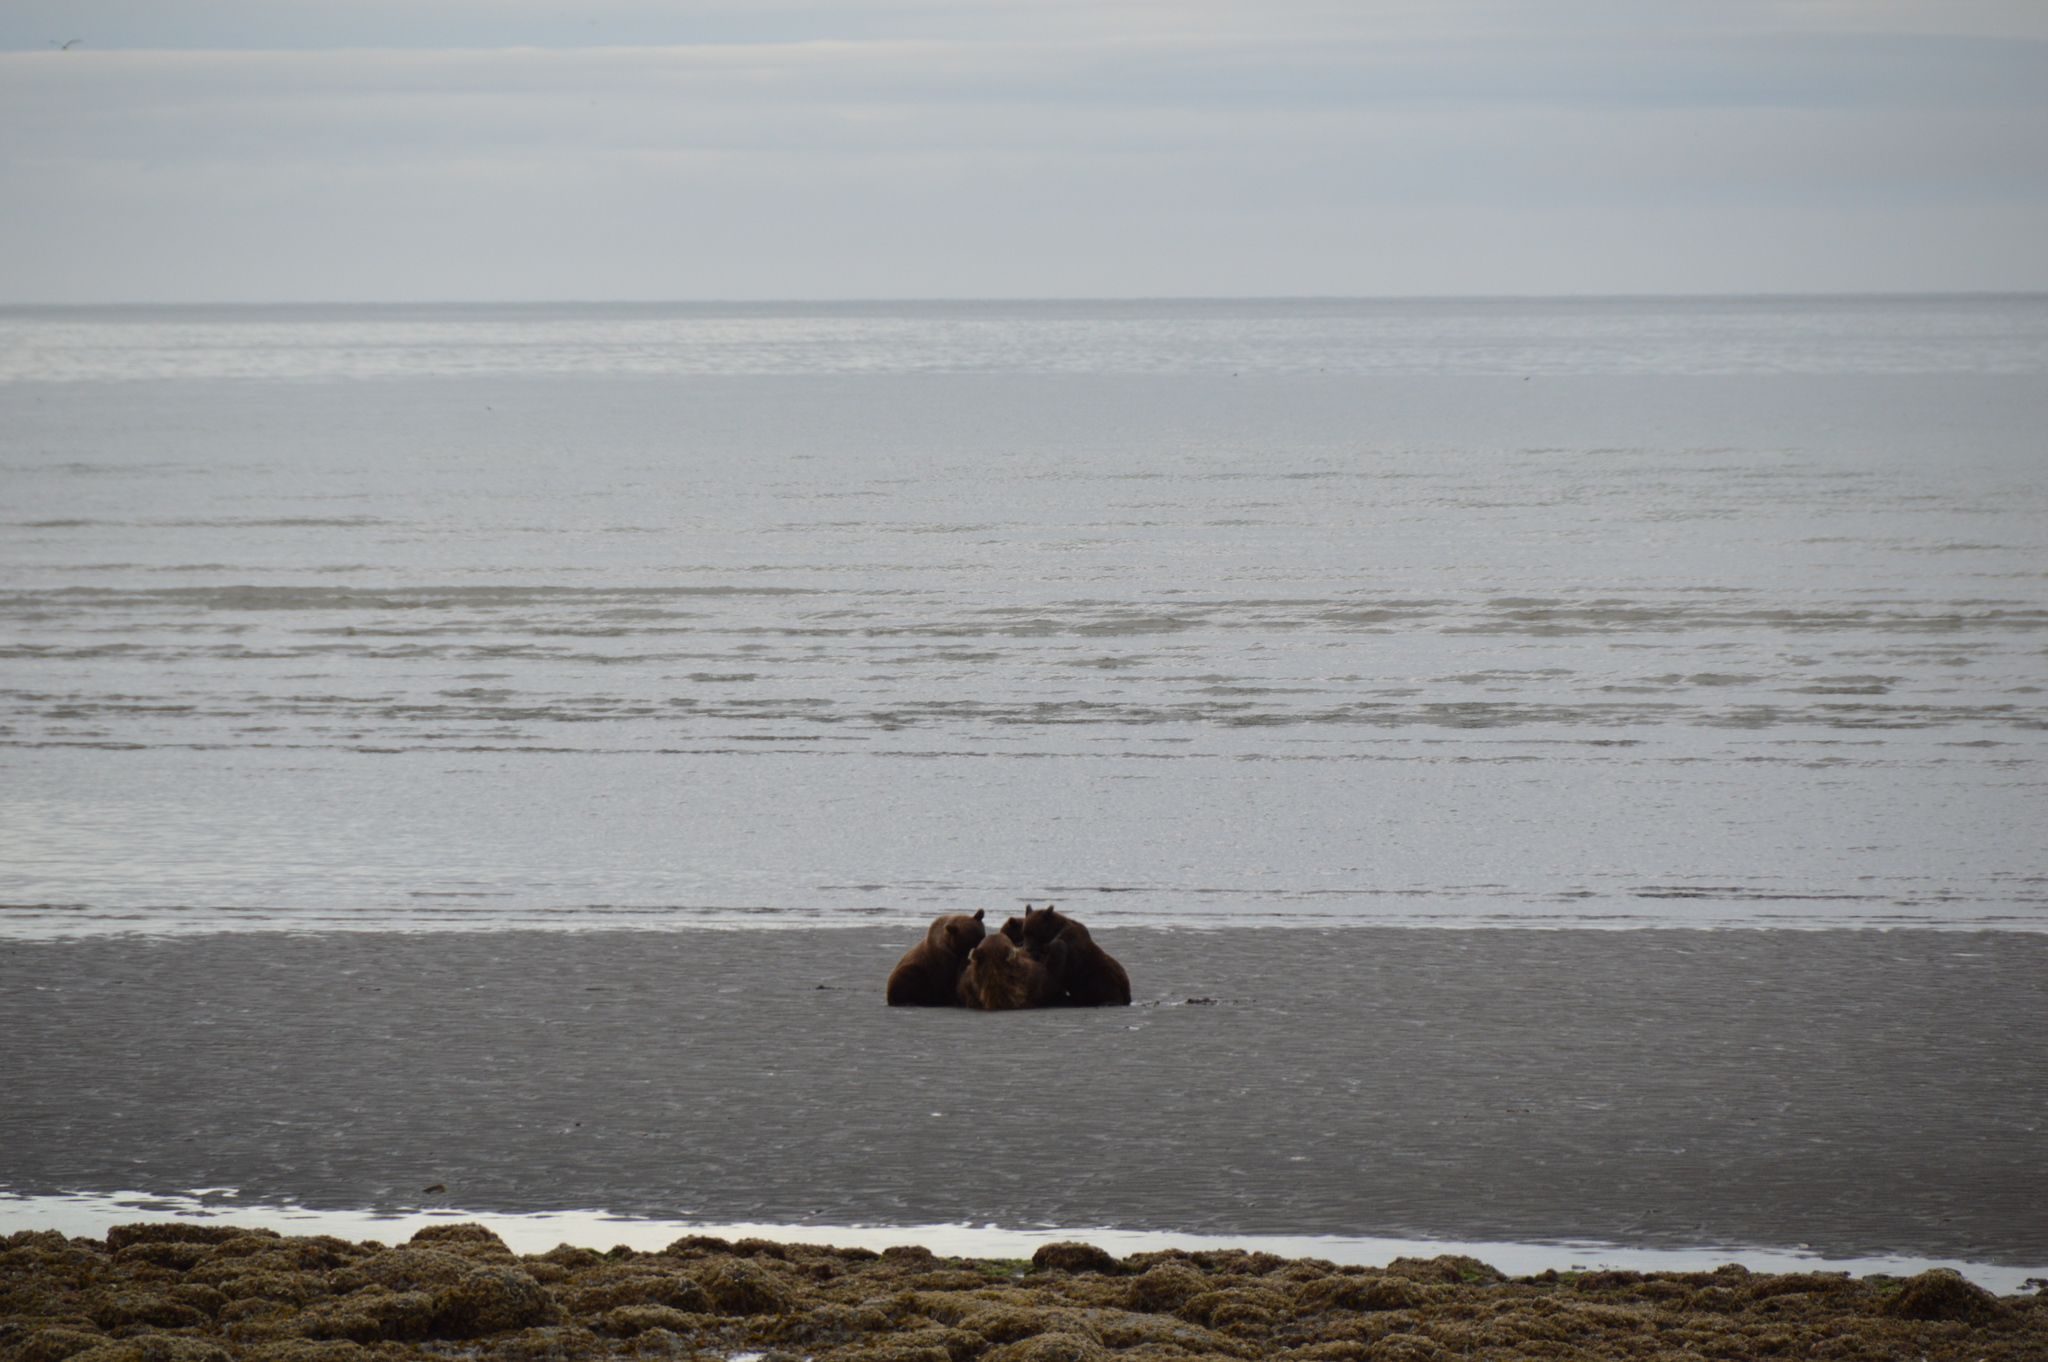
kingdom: Animalia
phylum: Chordata
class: Mammalia
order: Carnivora
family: Ursidae
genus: Ursus
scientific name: Ursus arctos
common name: Brown bear
